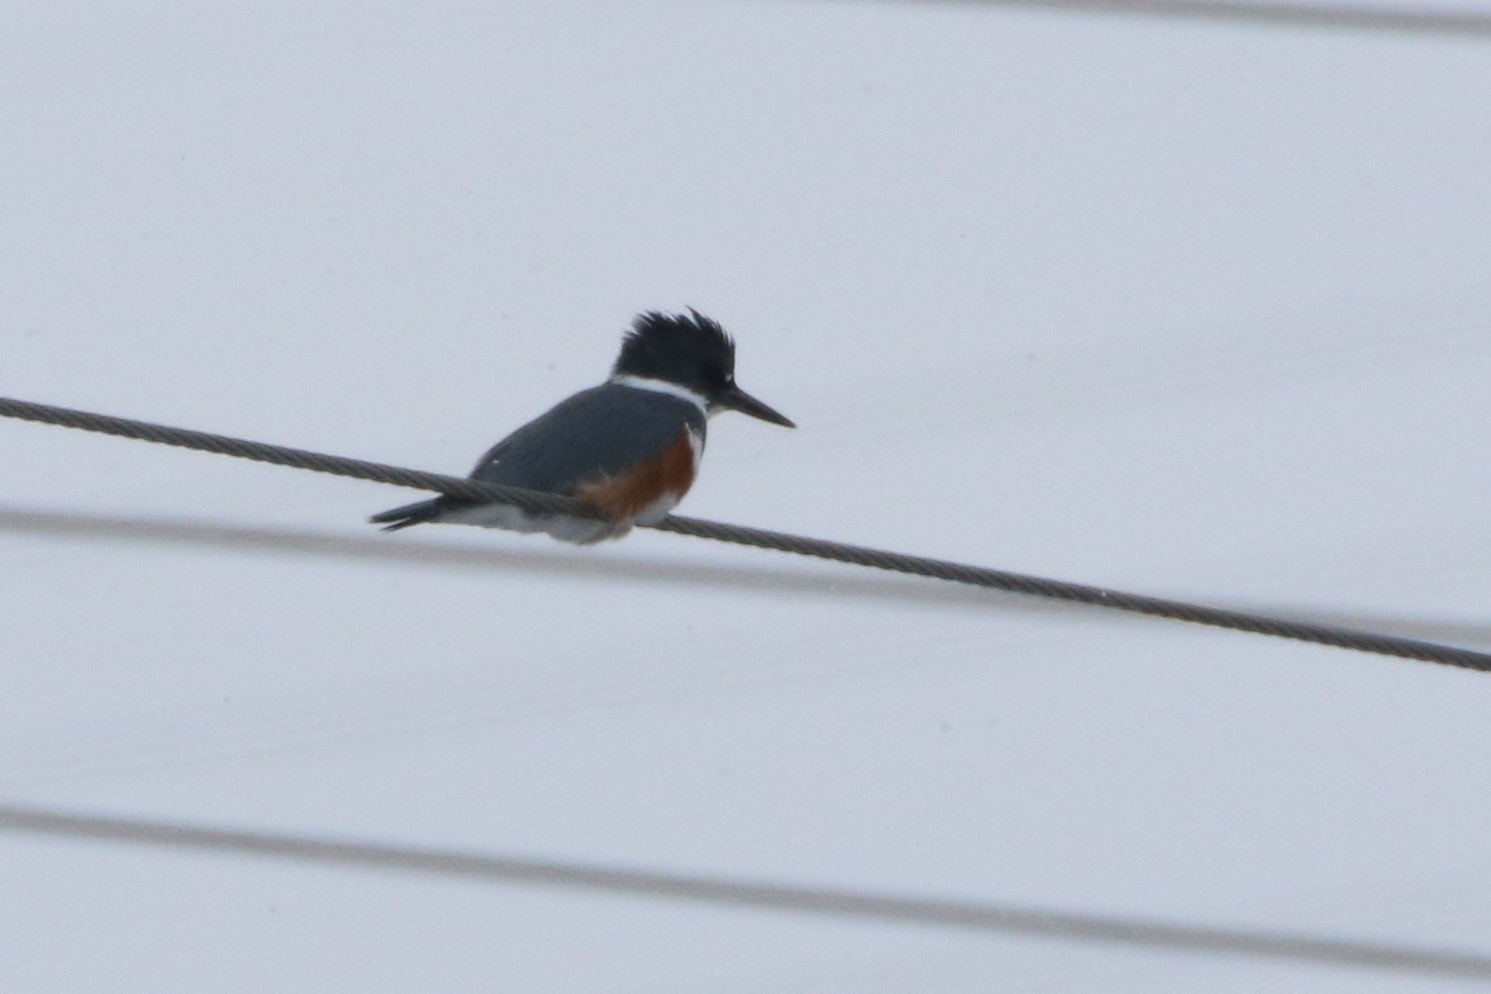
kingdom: Animalia
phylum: Chordata
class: Aves
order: Coraciiformes
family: Alcedinidae
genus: Megaceryle
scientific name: Megaceryle alcyon
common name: Belted kingfisher
